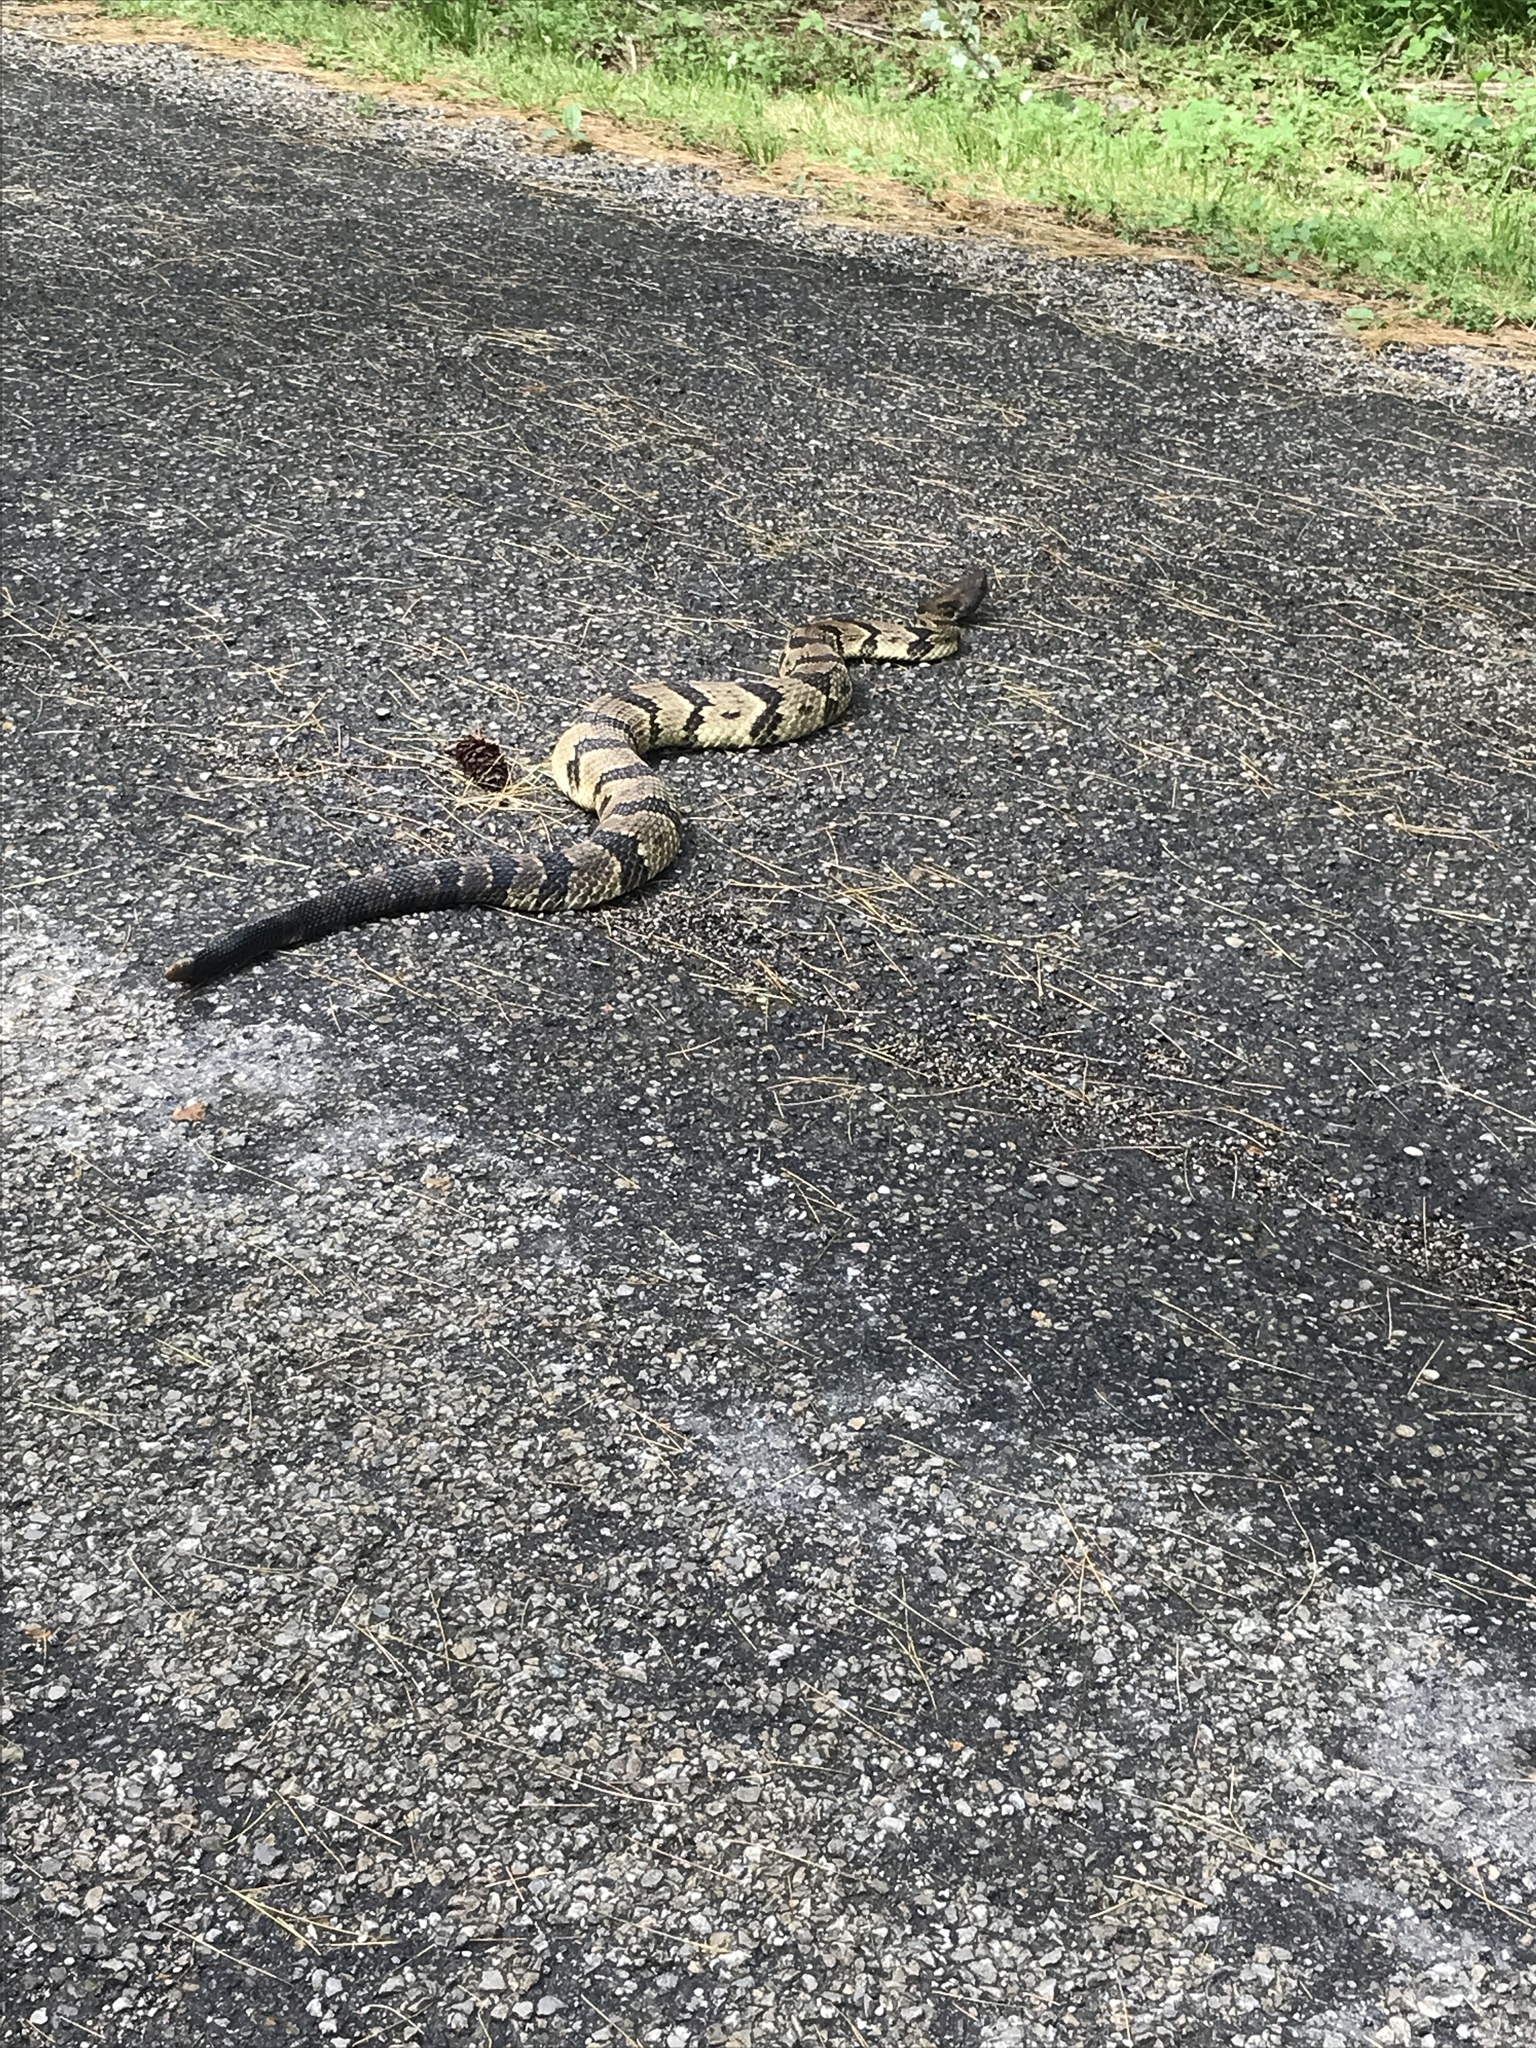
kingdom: Animalia
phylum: Chordata
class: Squamata
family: Viperidae
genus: Crotalus
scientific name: Crotalus horridus
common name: Timber rattlesnake
